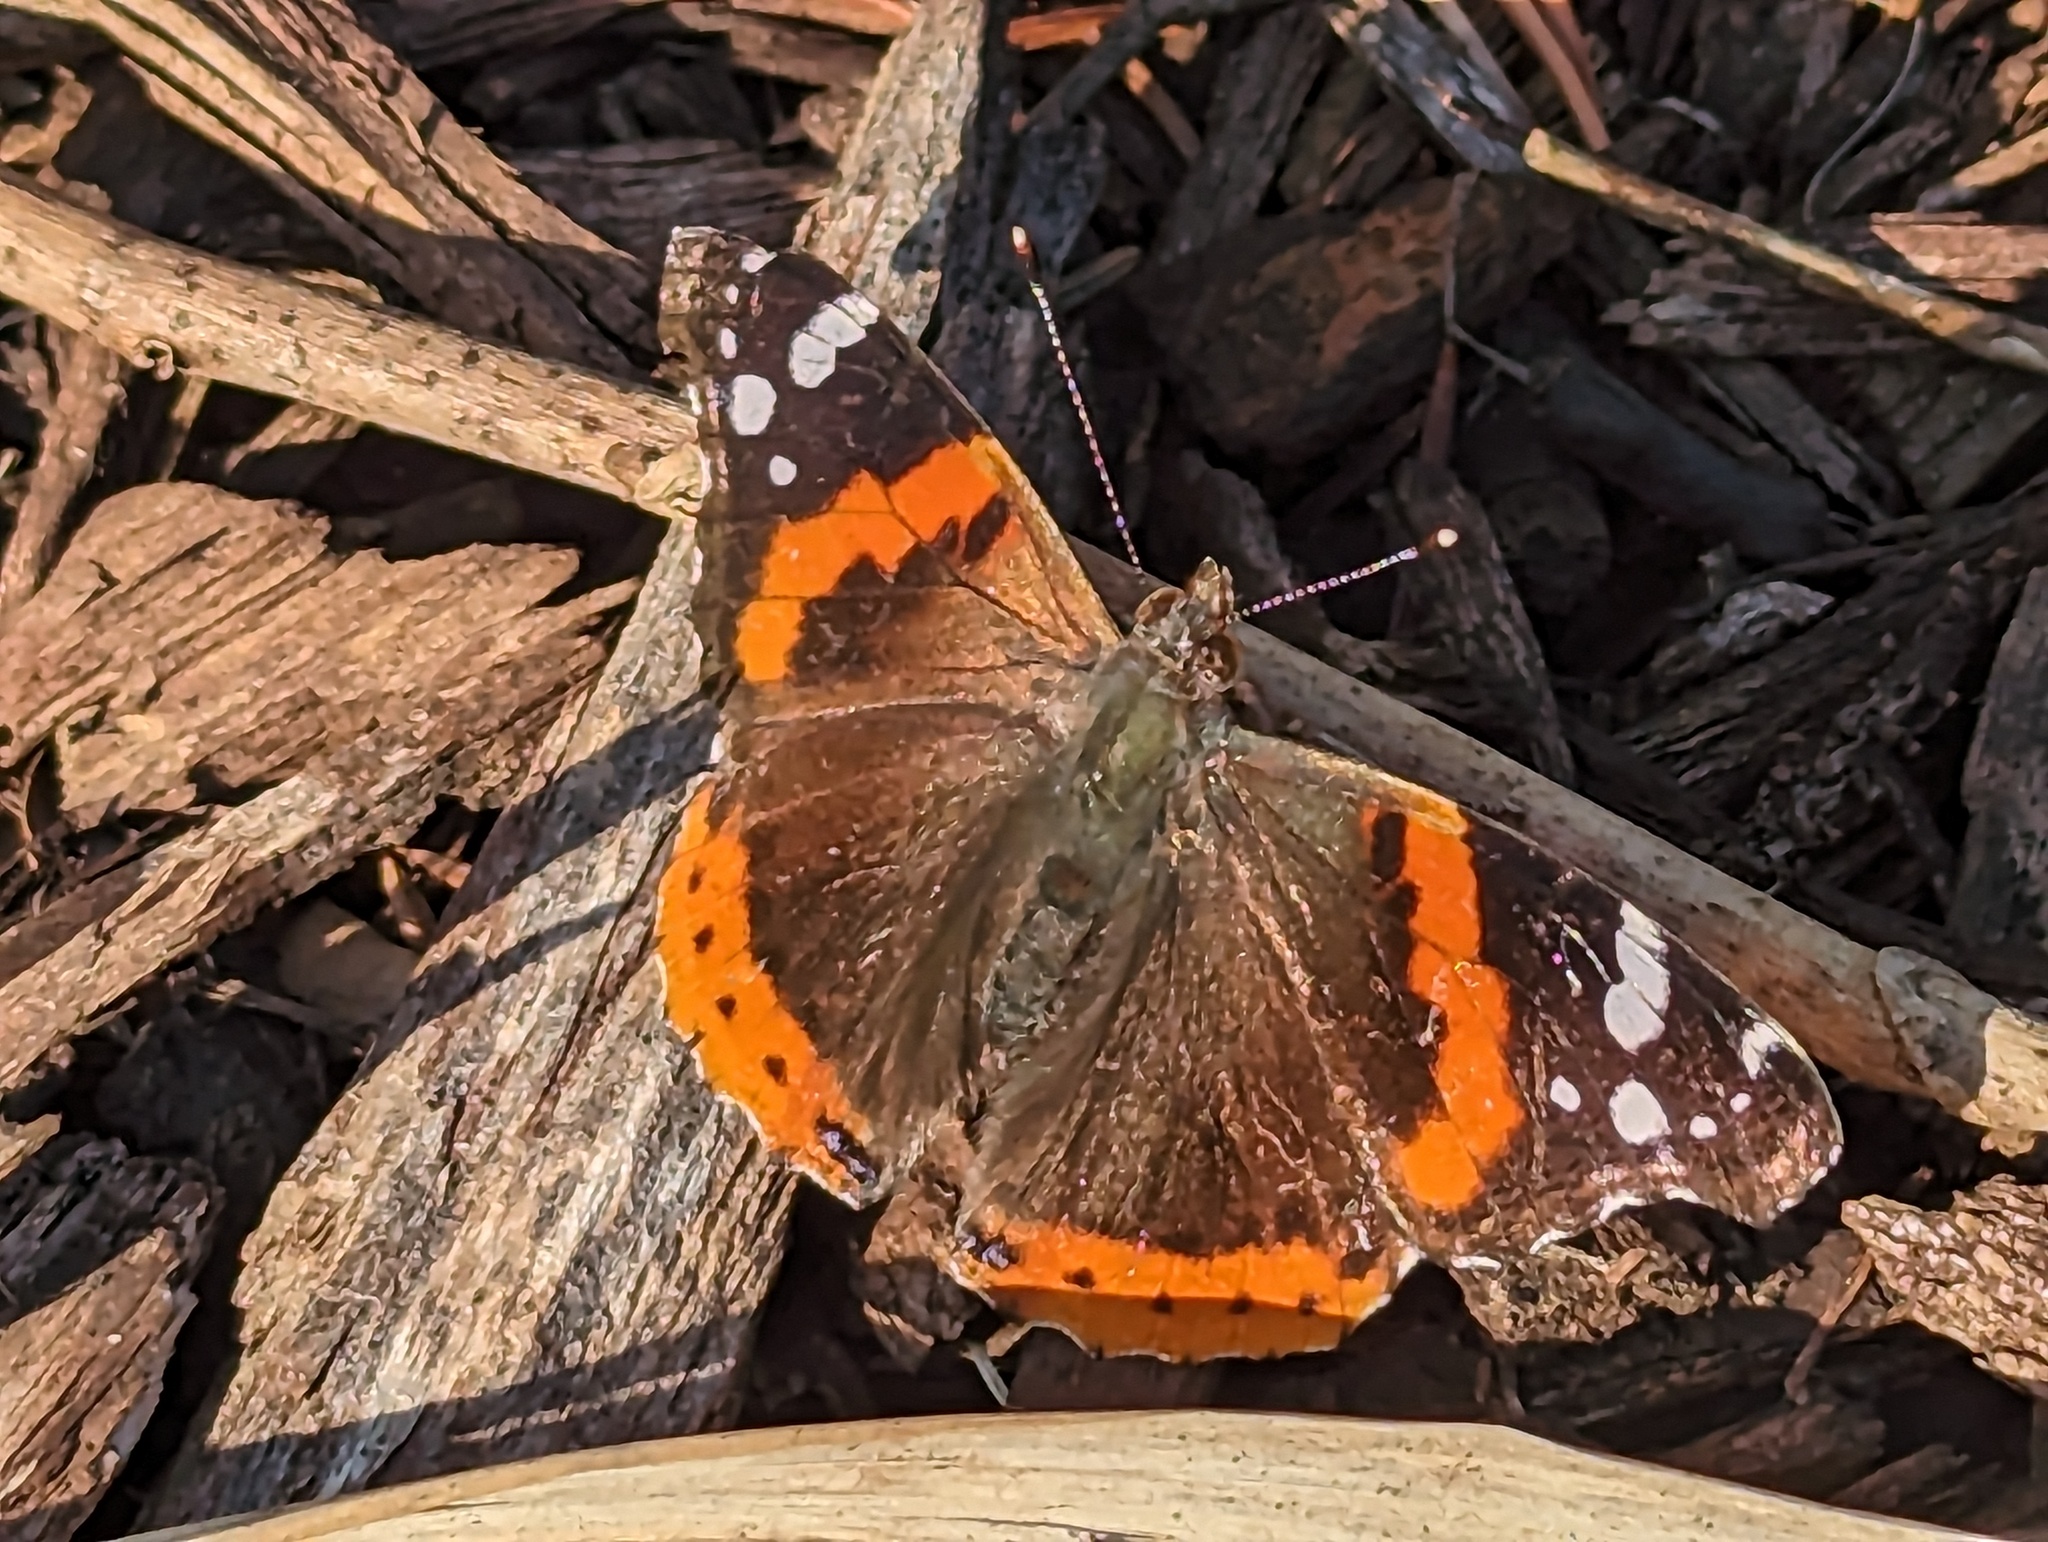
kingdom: Animalia
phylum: Arthropoda
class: Insecta
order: Lepidoptera
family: Nymphalidae
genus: Vanessa
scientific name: Vanessa atalanta
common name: Red admiral
